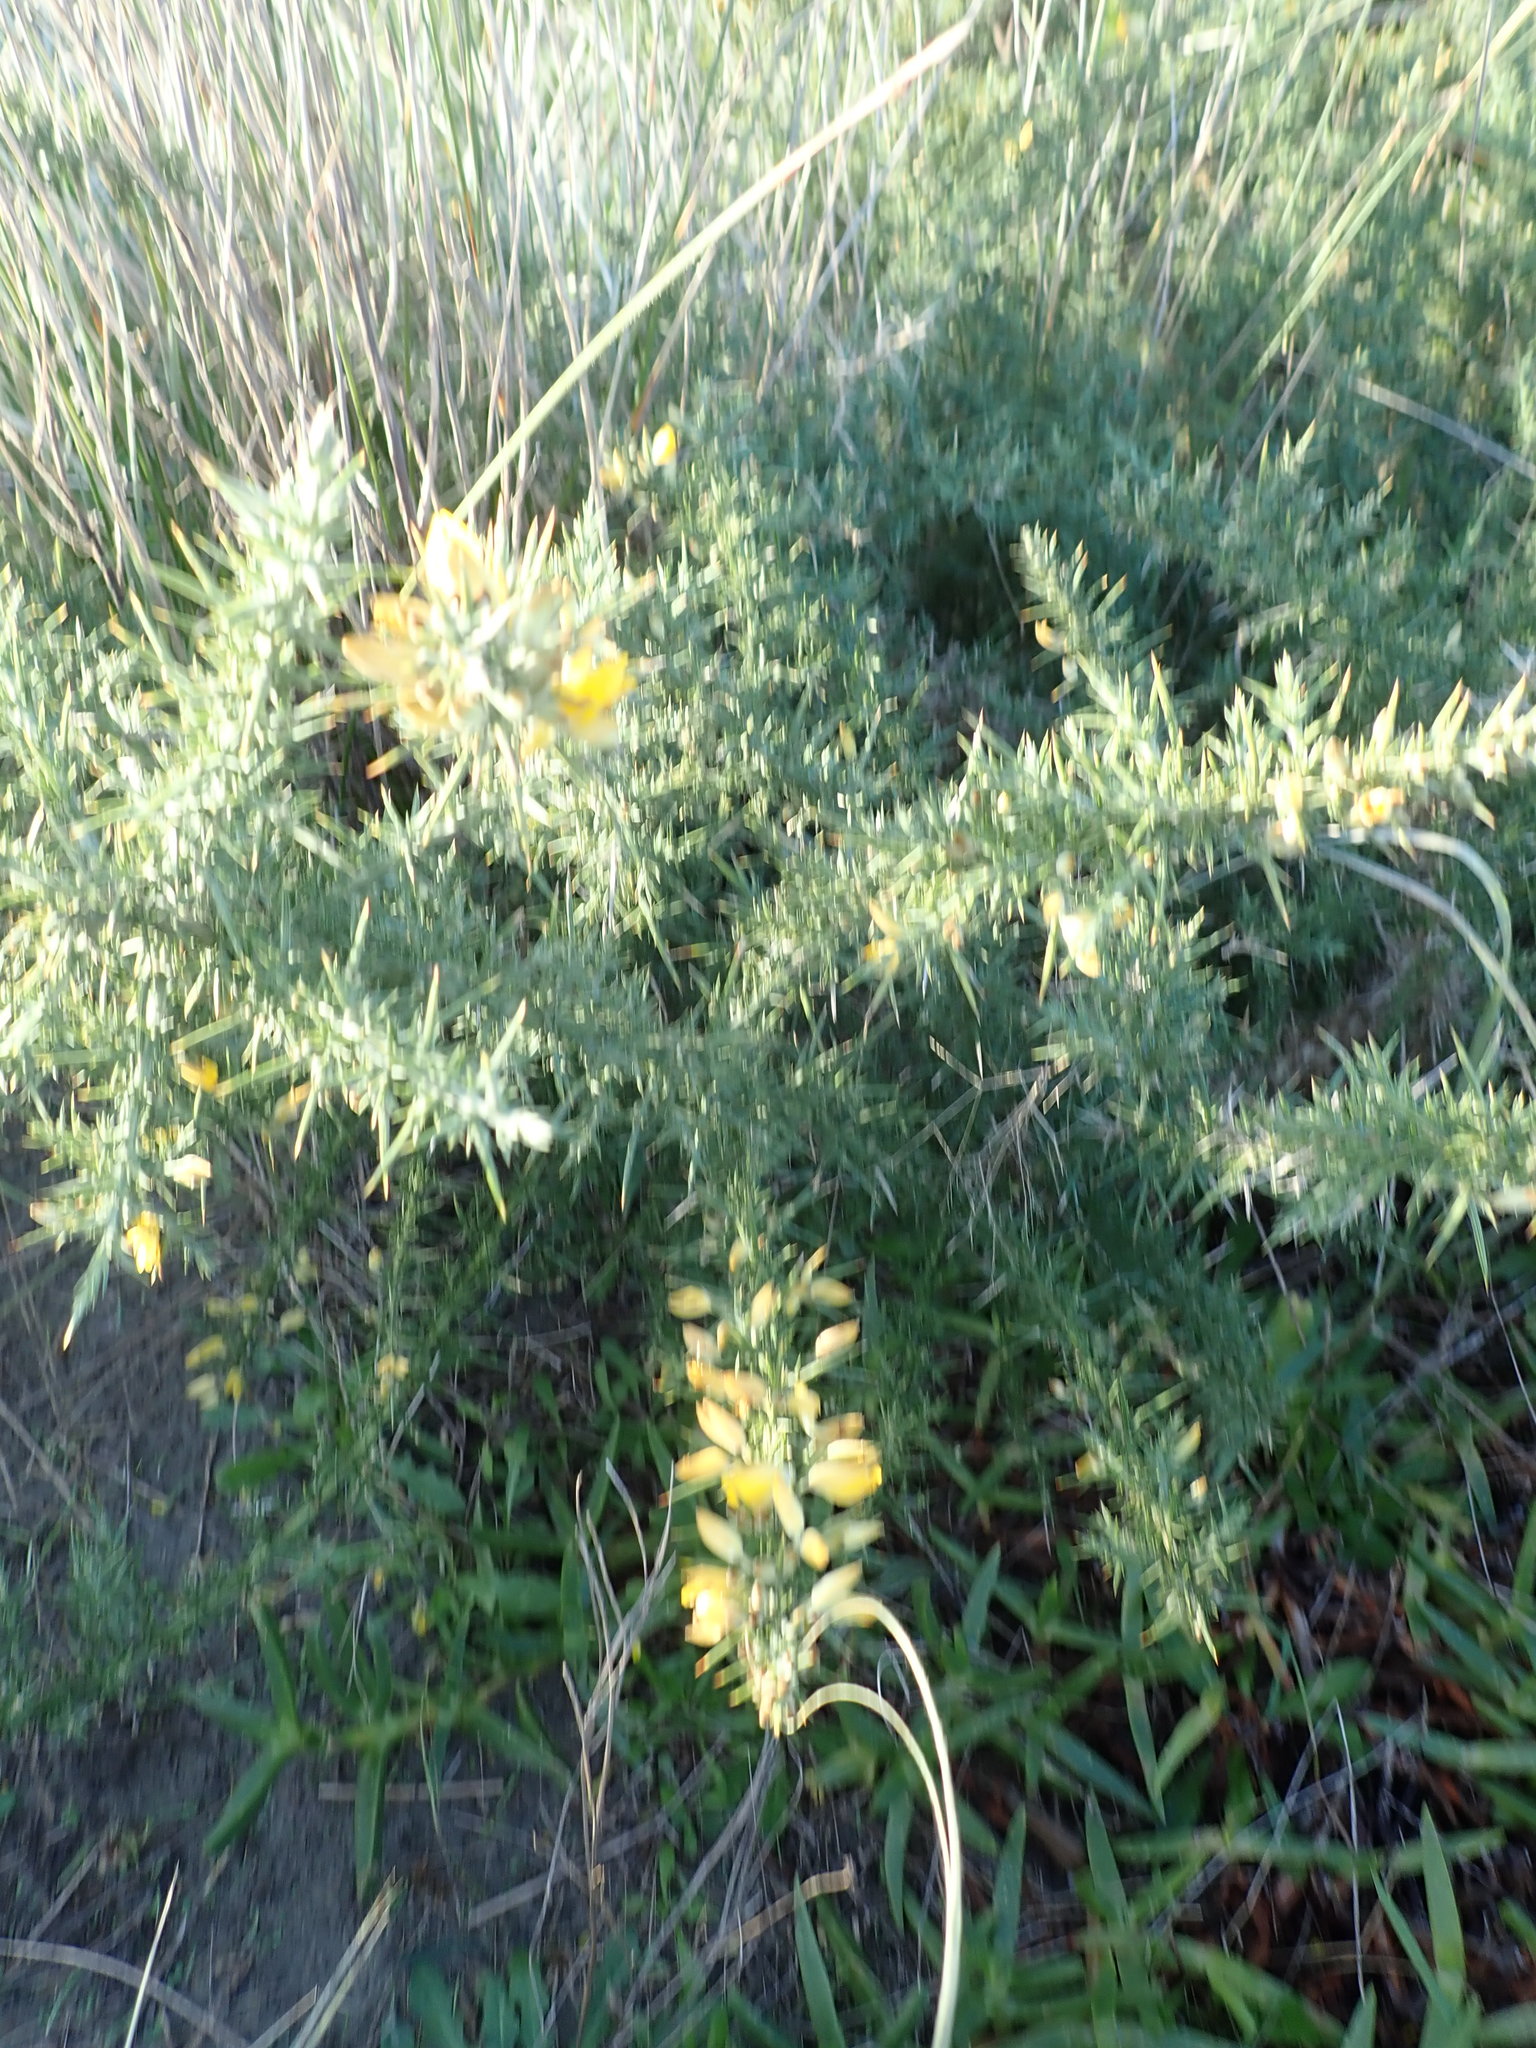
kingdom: Plantae
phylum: Tracheophyta
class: Magnoliopsida
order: Fabales
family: Fabaceae
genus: Ulex
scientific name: Ulex europaeus
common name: Common gorse
